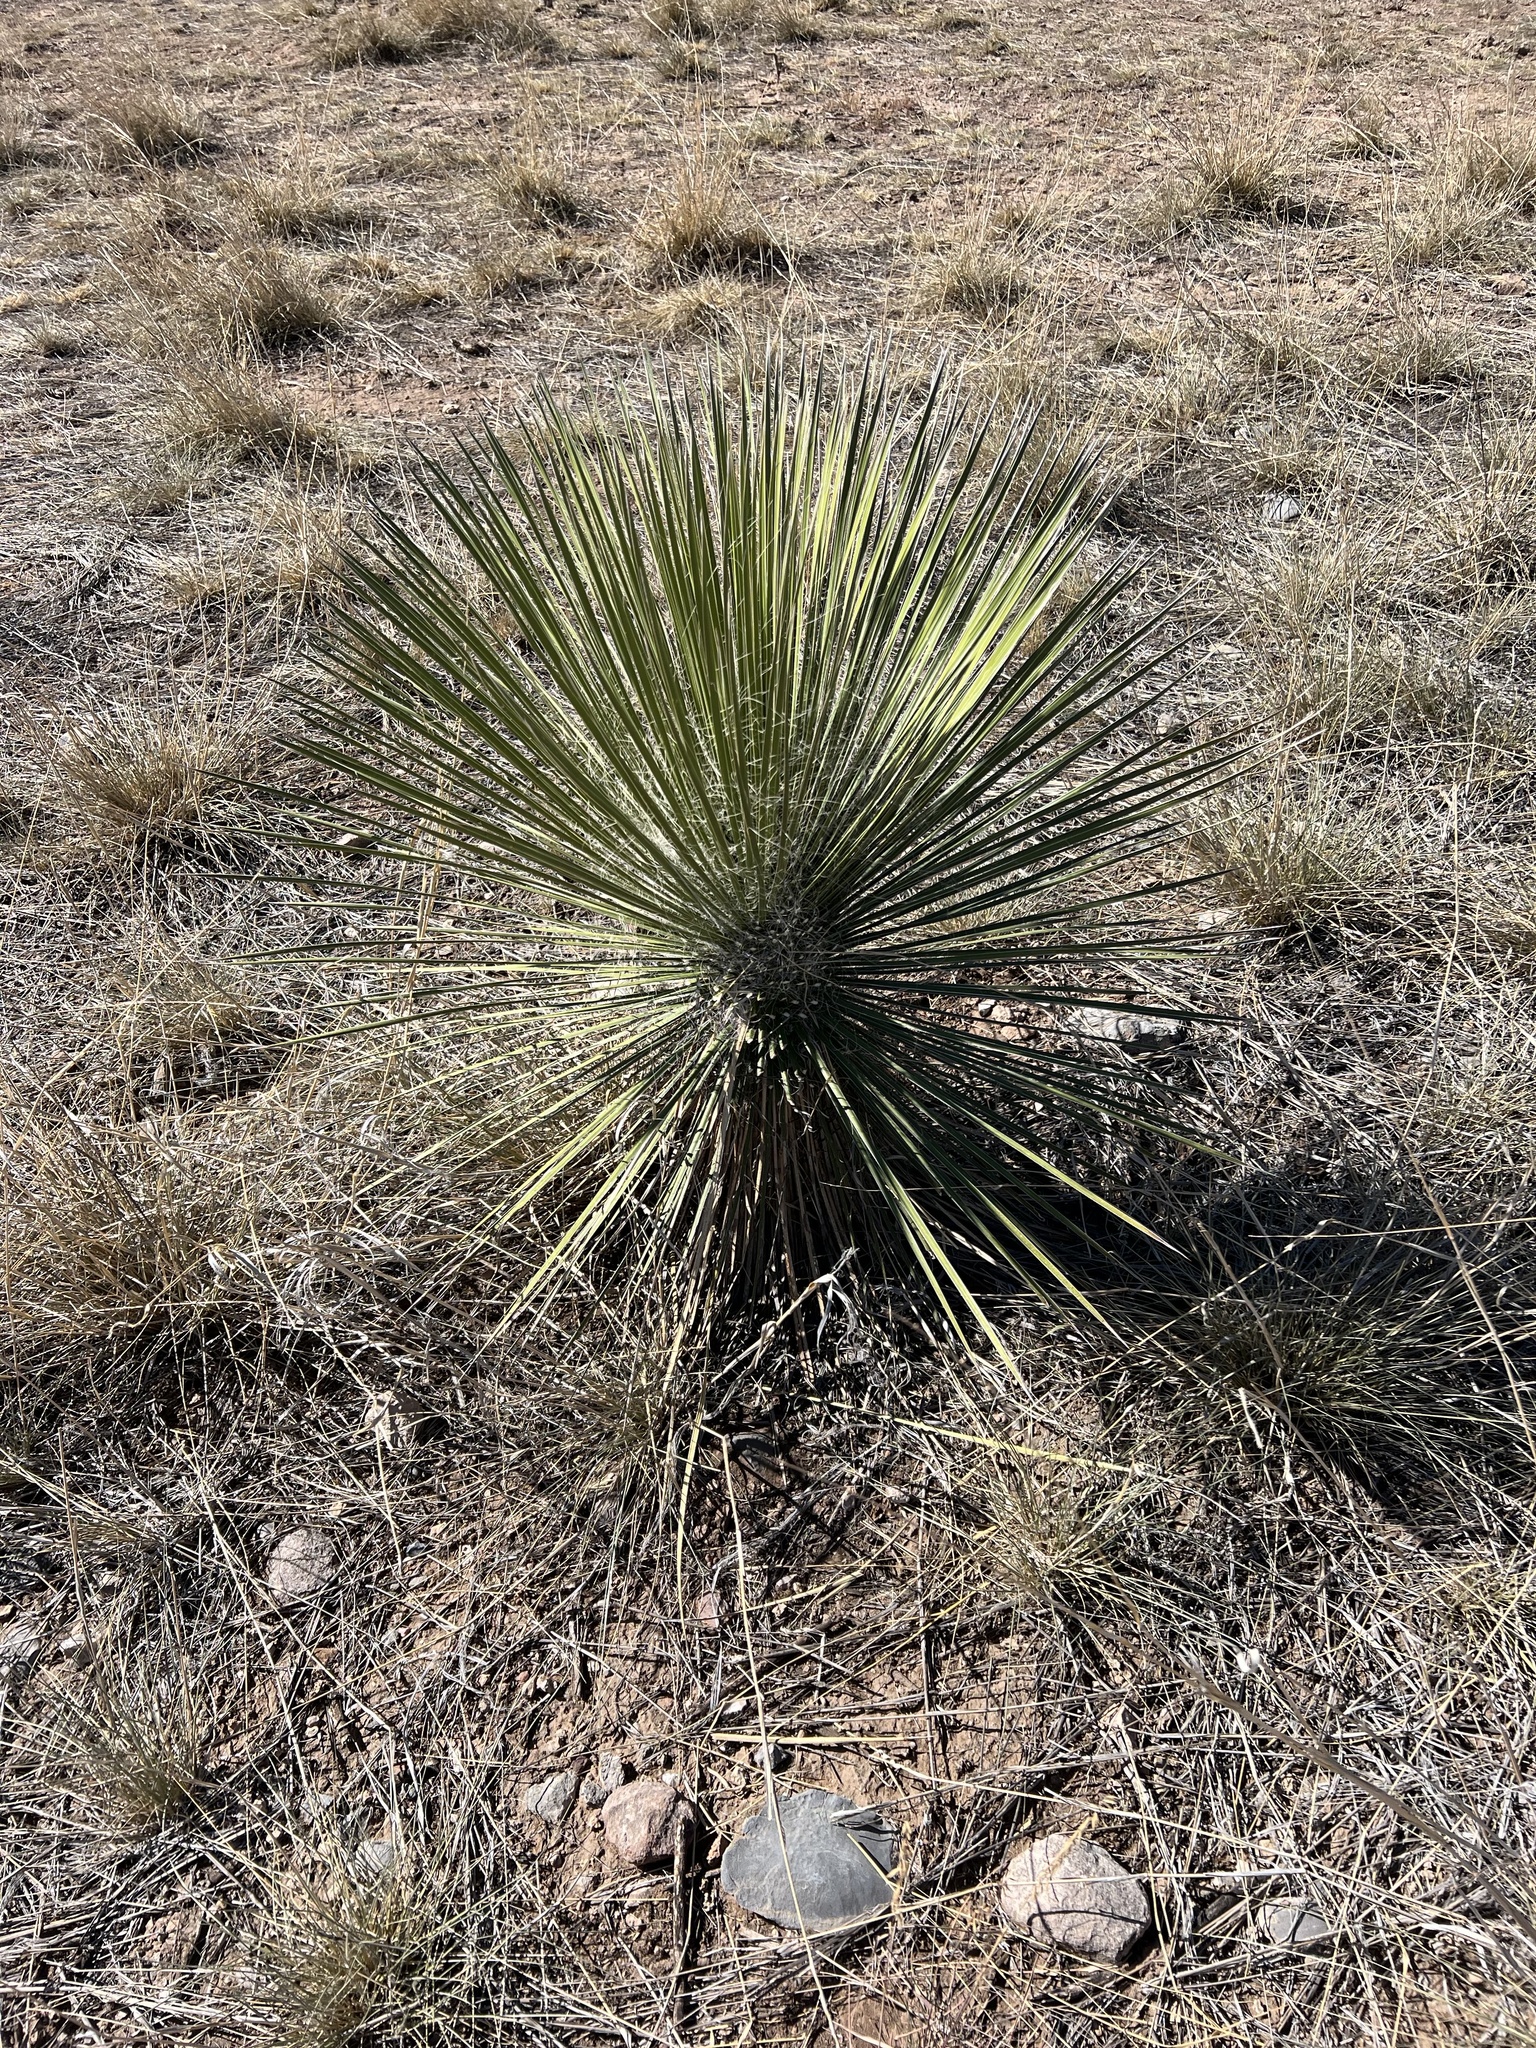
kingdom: Plantae
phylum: Tracheophyta
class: Liliopsida
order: Asparagales
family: Asparagaceae
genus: Yucca
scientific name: Yucca elata
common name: Palmella
